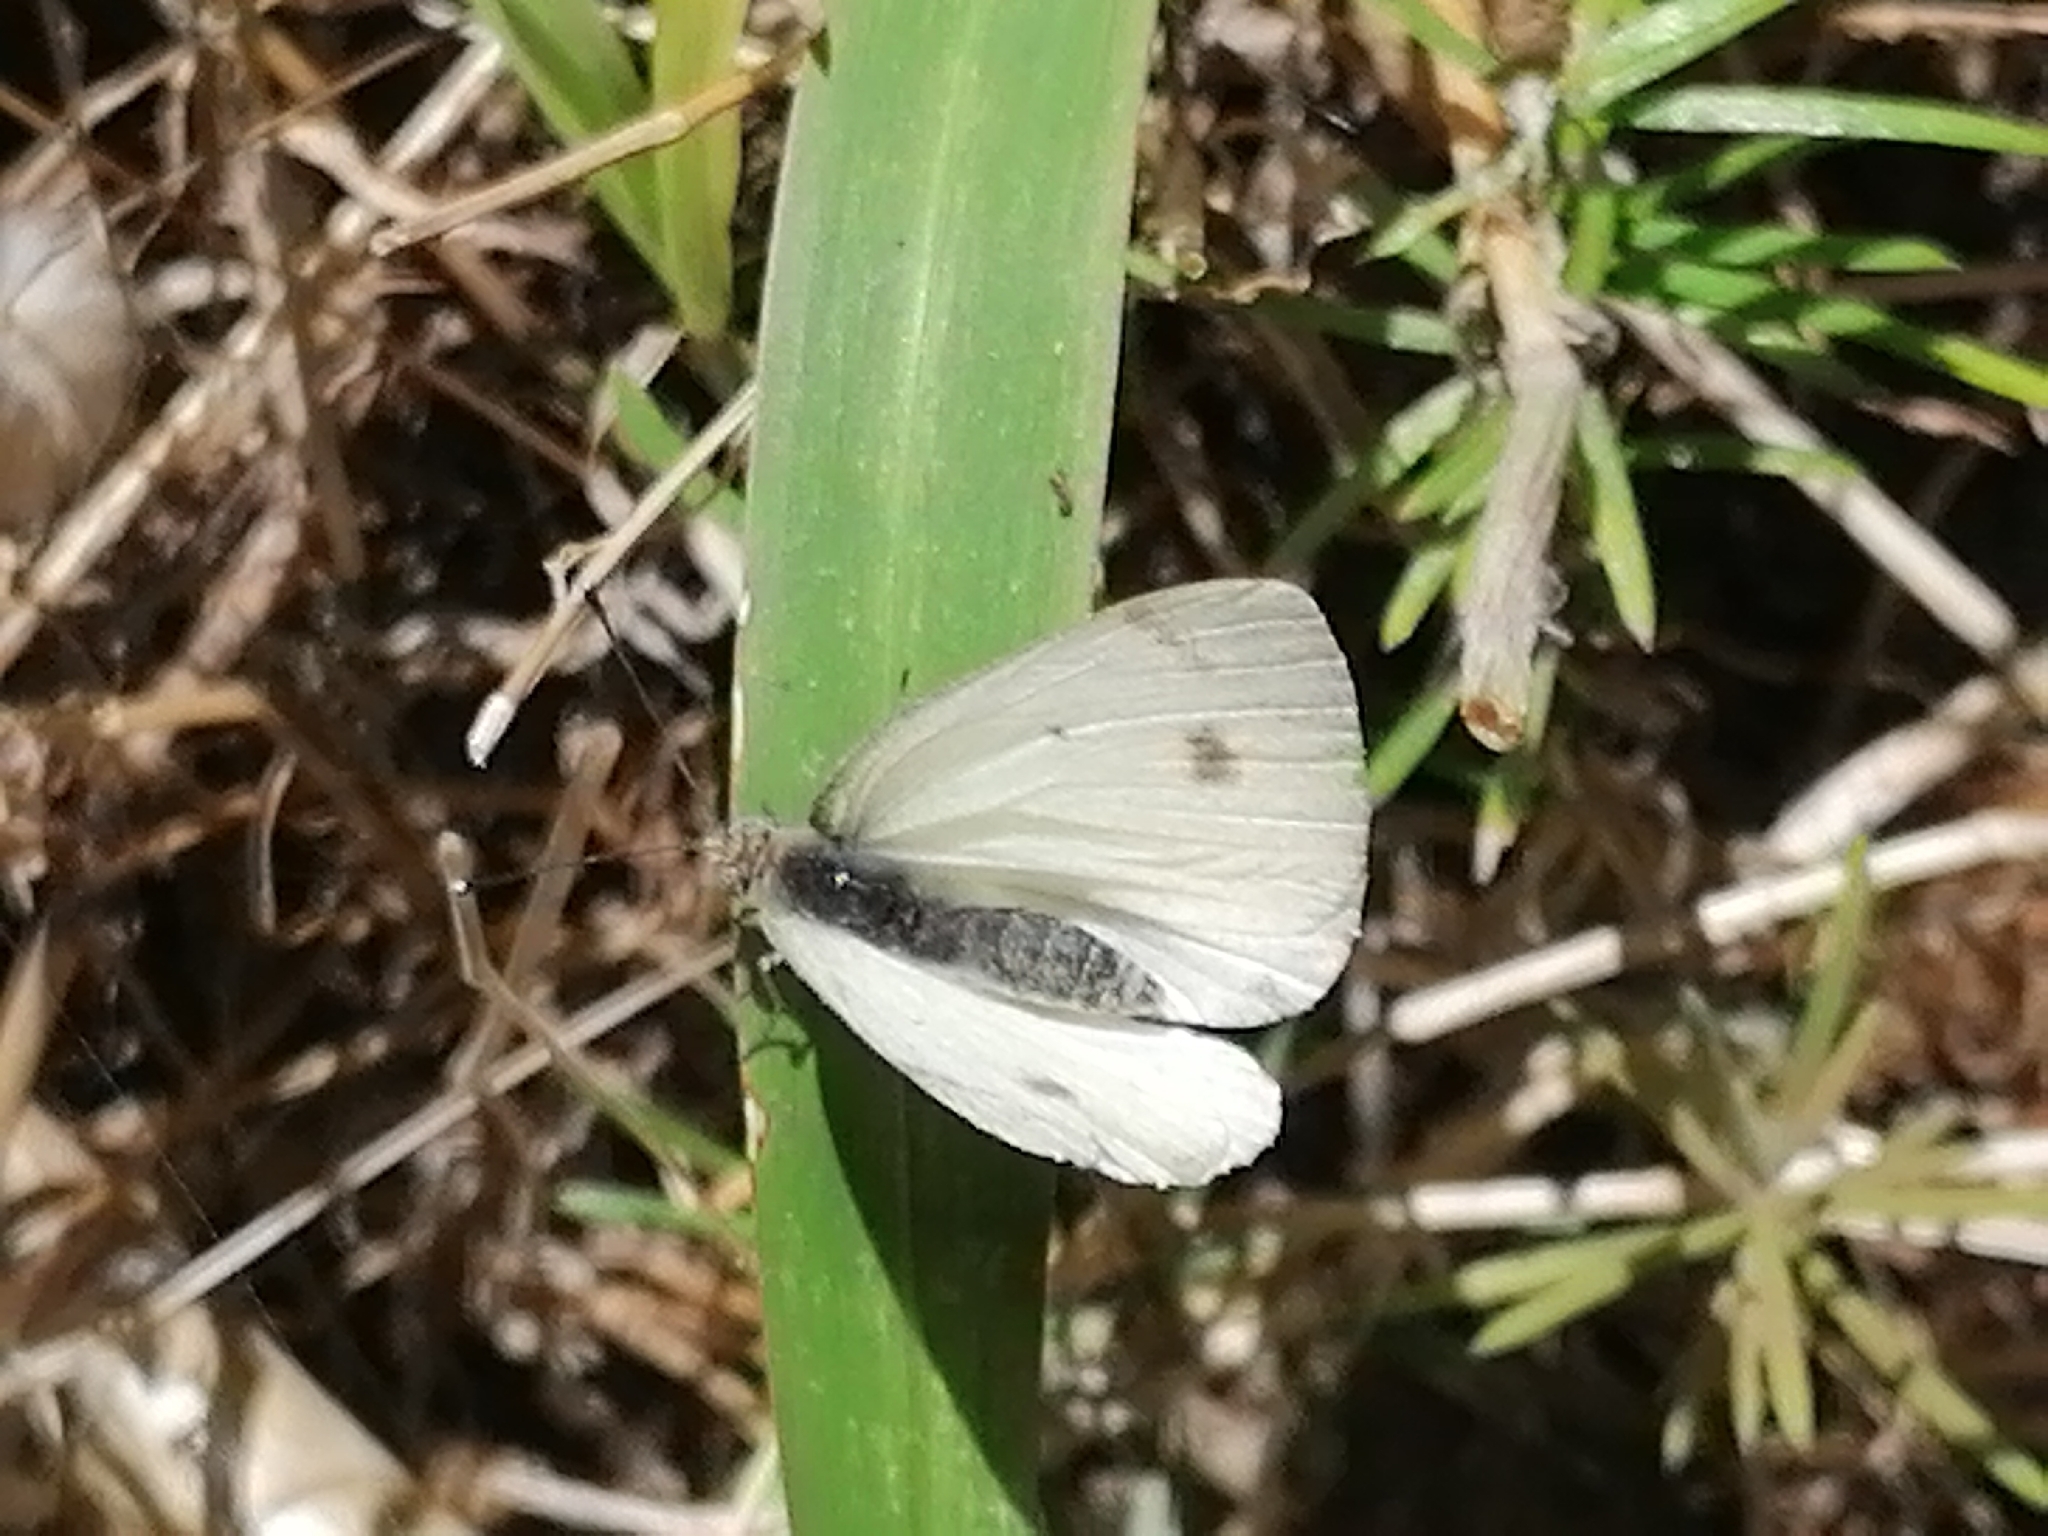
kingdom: Animalia
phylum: Arthropoda
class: Insecta
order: Lepidoptera
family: Pieridae
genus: Pieris
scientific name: Pieris brassicae
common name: Large white
